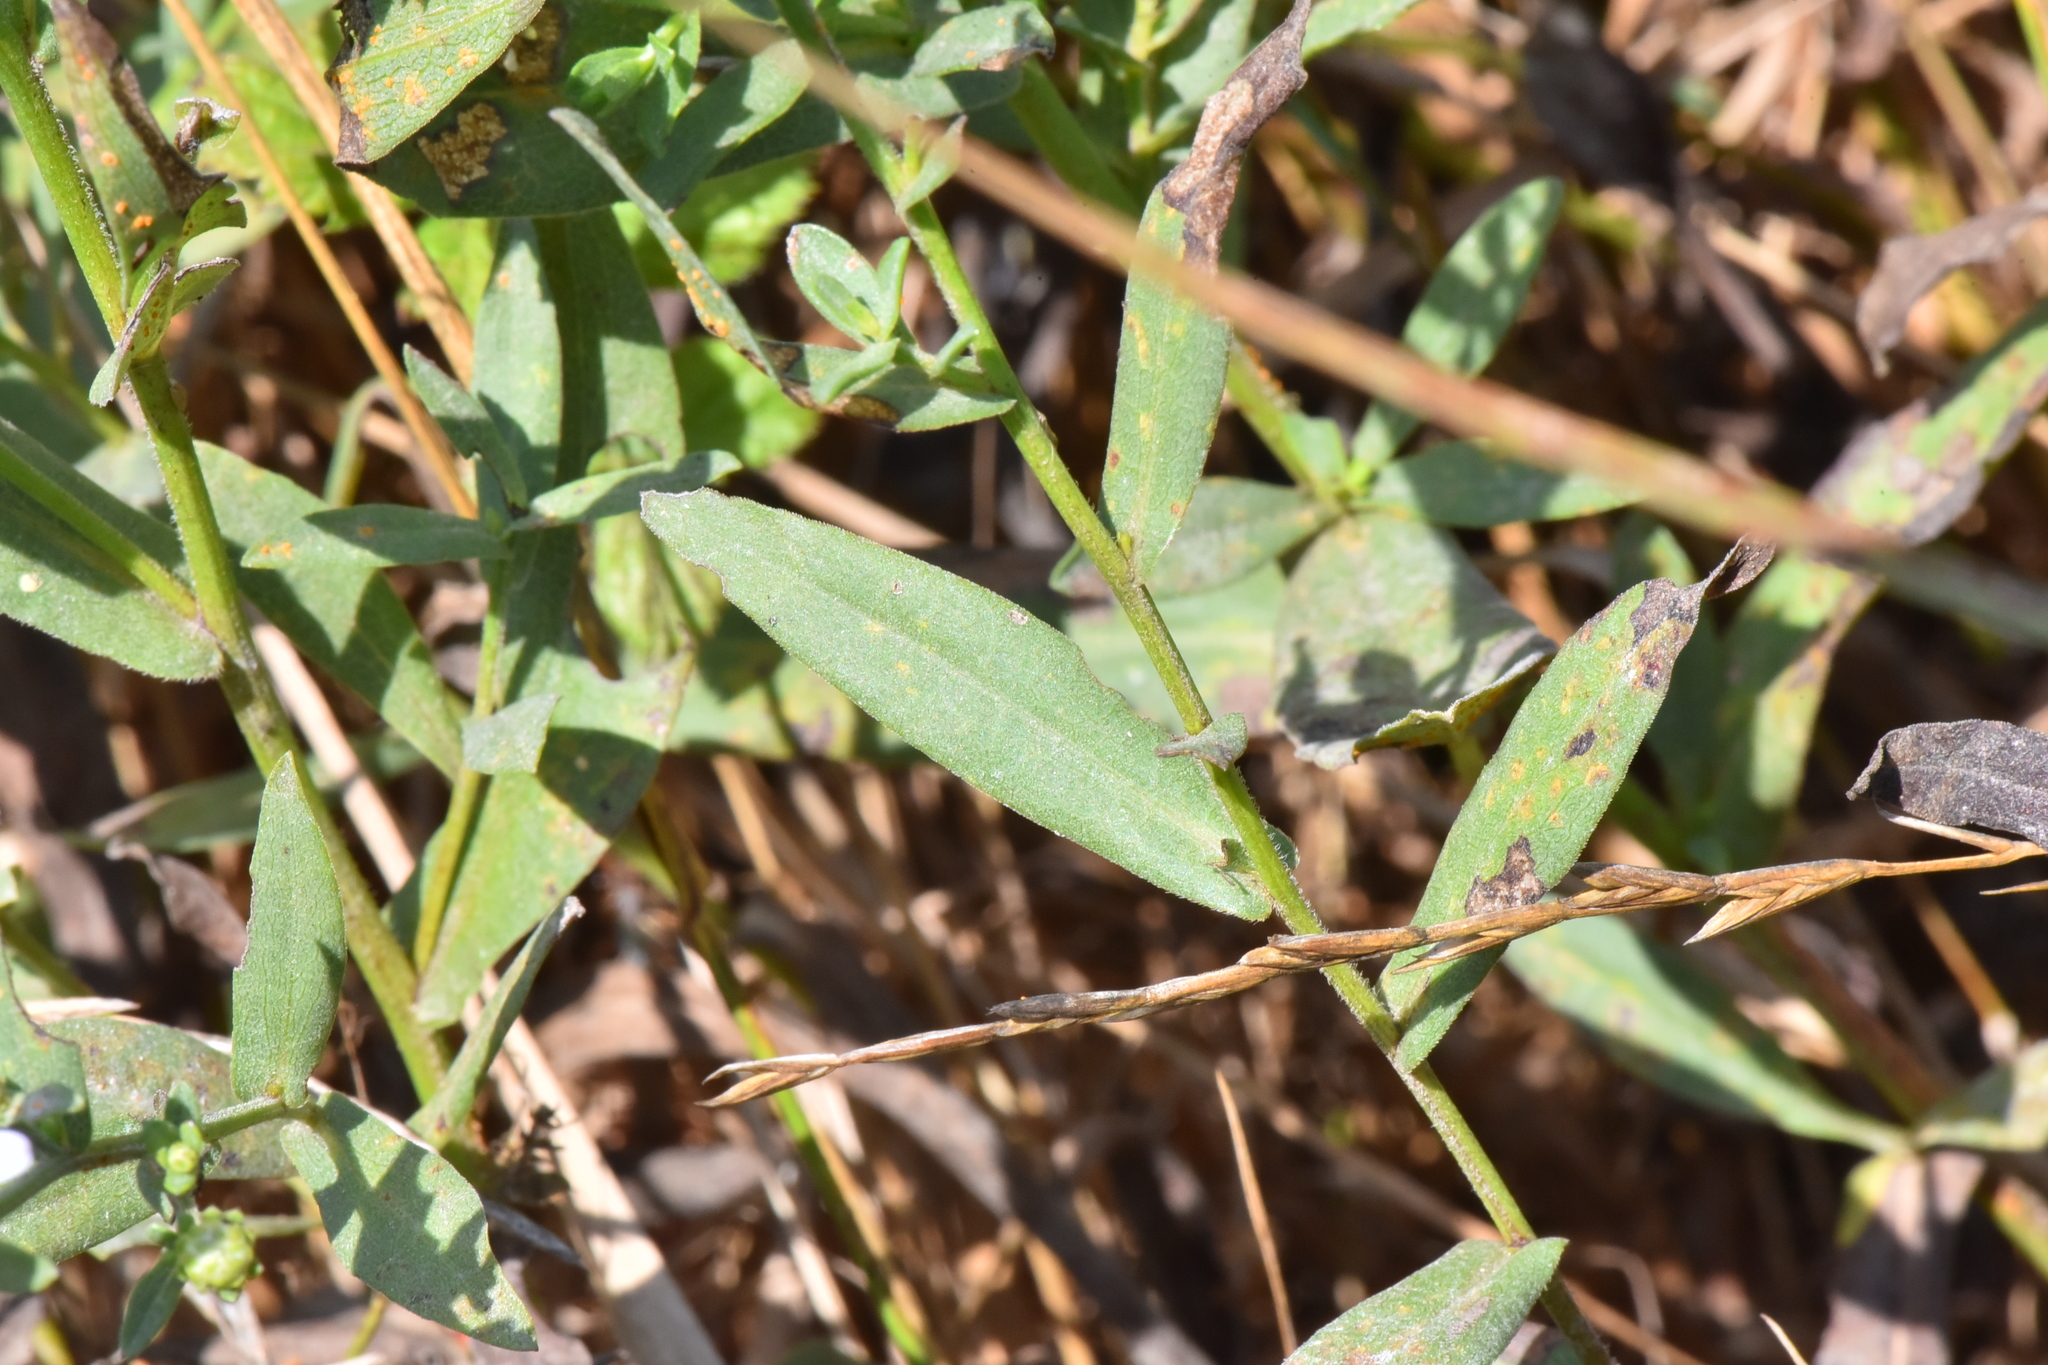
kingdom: Plantae
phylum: Tracheophyta
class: Magnoliopsida
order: Asterales
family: Asteraceae
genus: Symphyotrichum
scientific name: Symphyotrichum chilense
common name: Pacific aster
